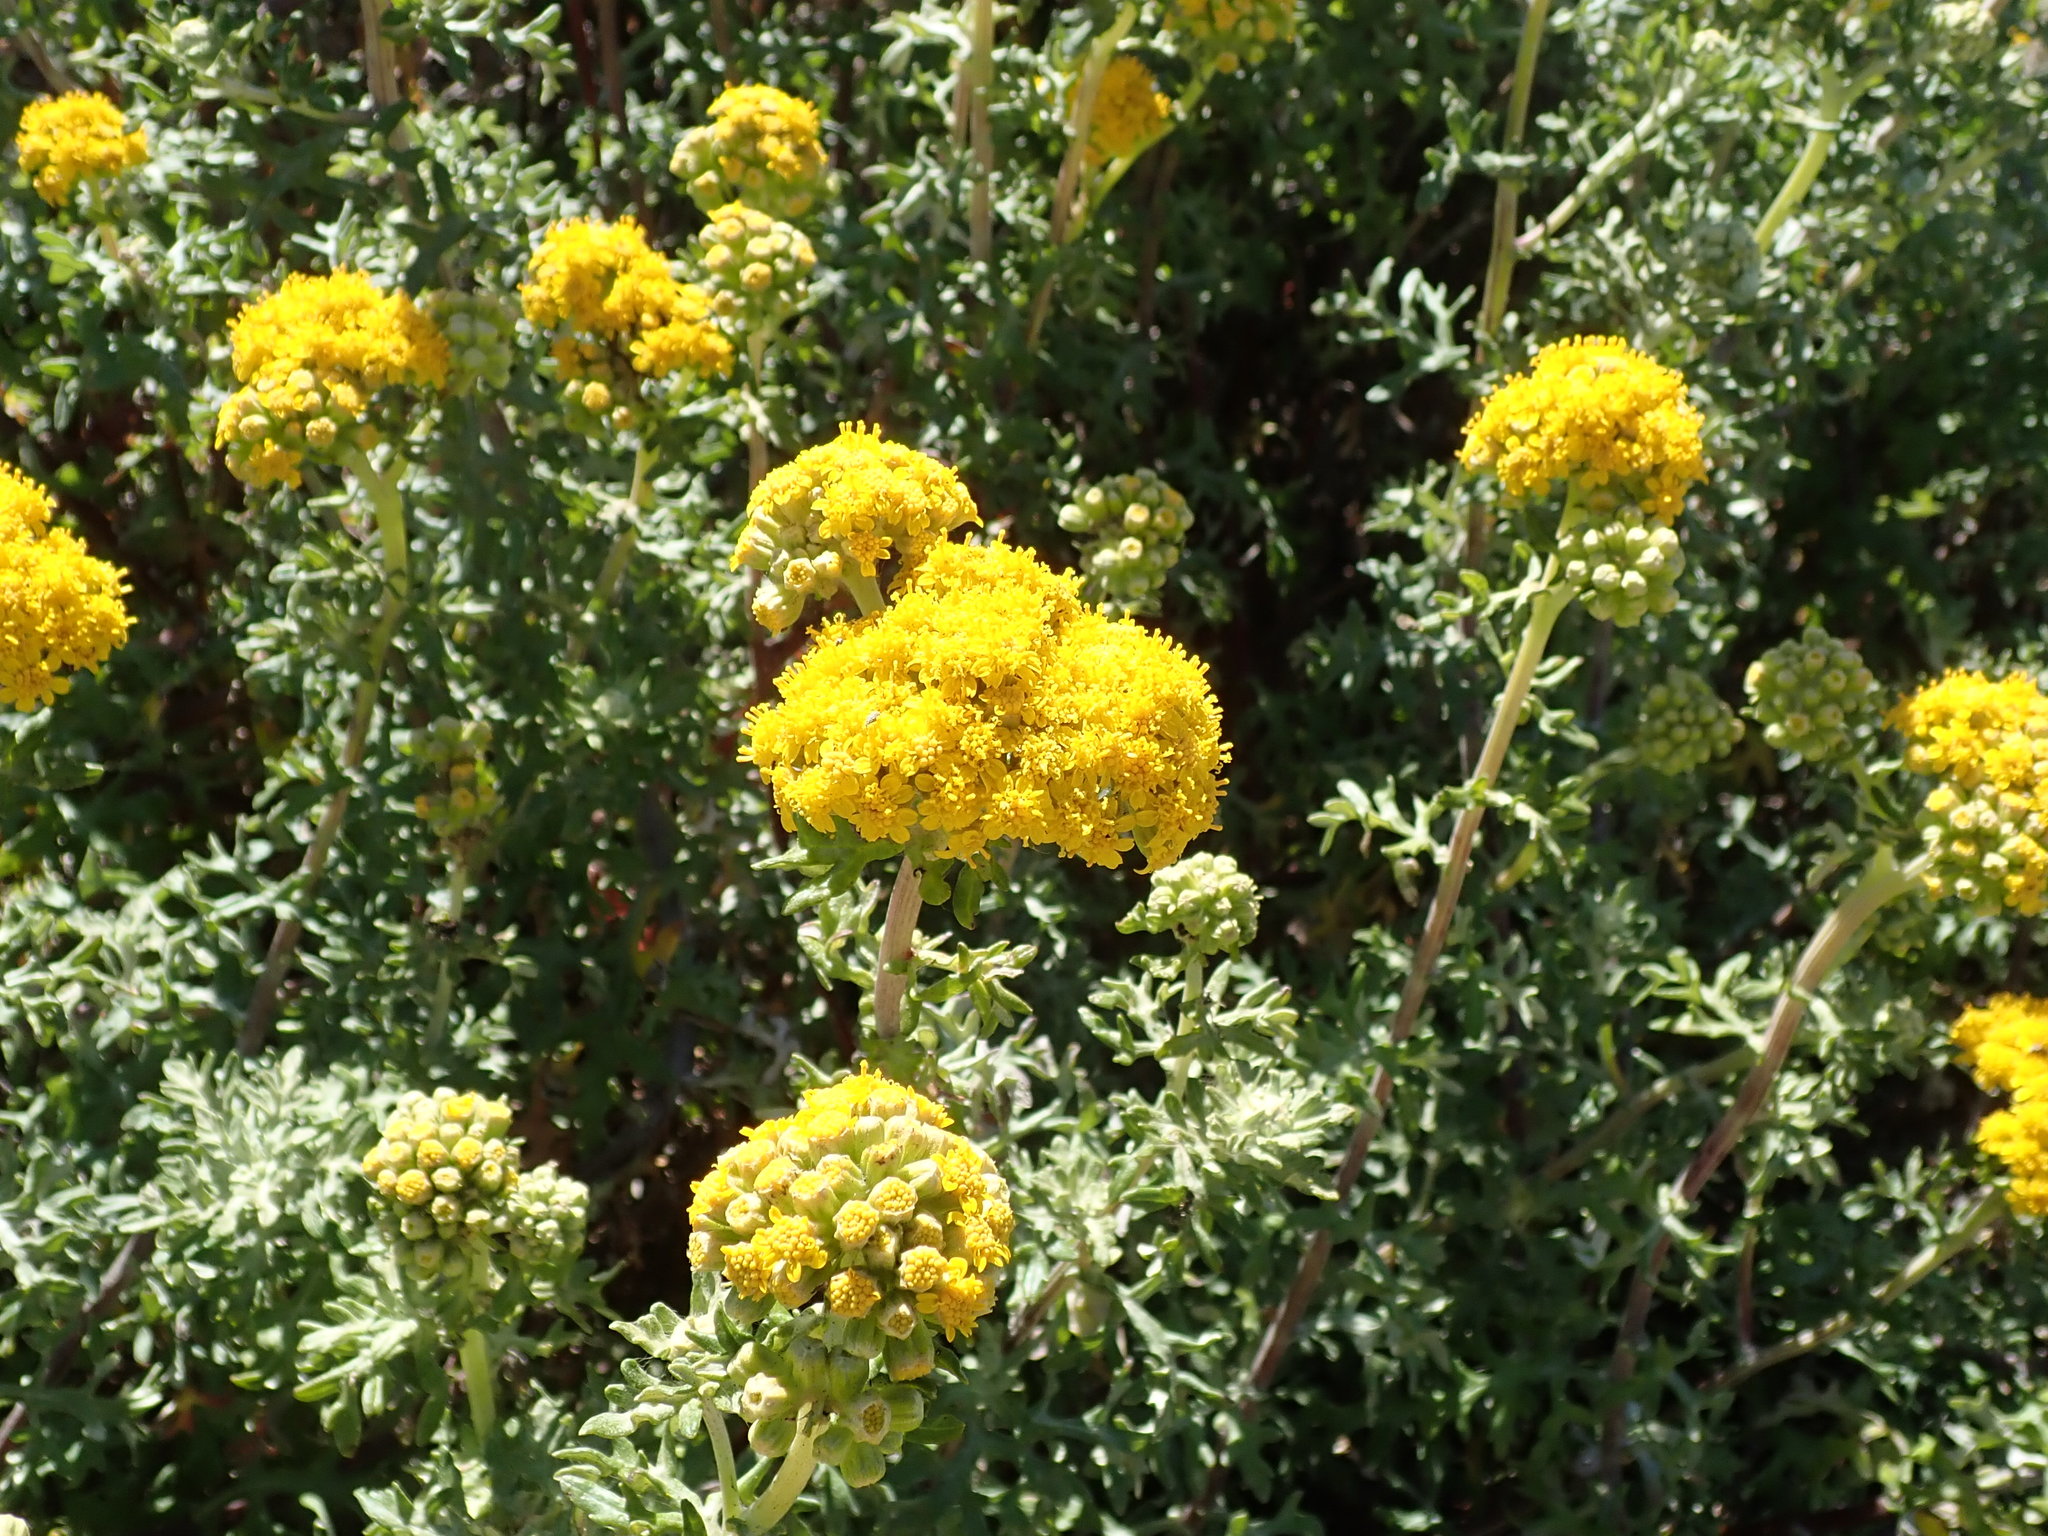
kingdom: Plantae
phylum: Tracheophyta
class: Magnoliopsida
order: Asterales
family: Asteraceae
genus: Eriophyllum
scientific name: Eriophyllum staechadifolium
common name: Lizardtail
